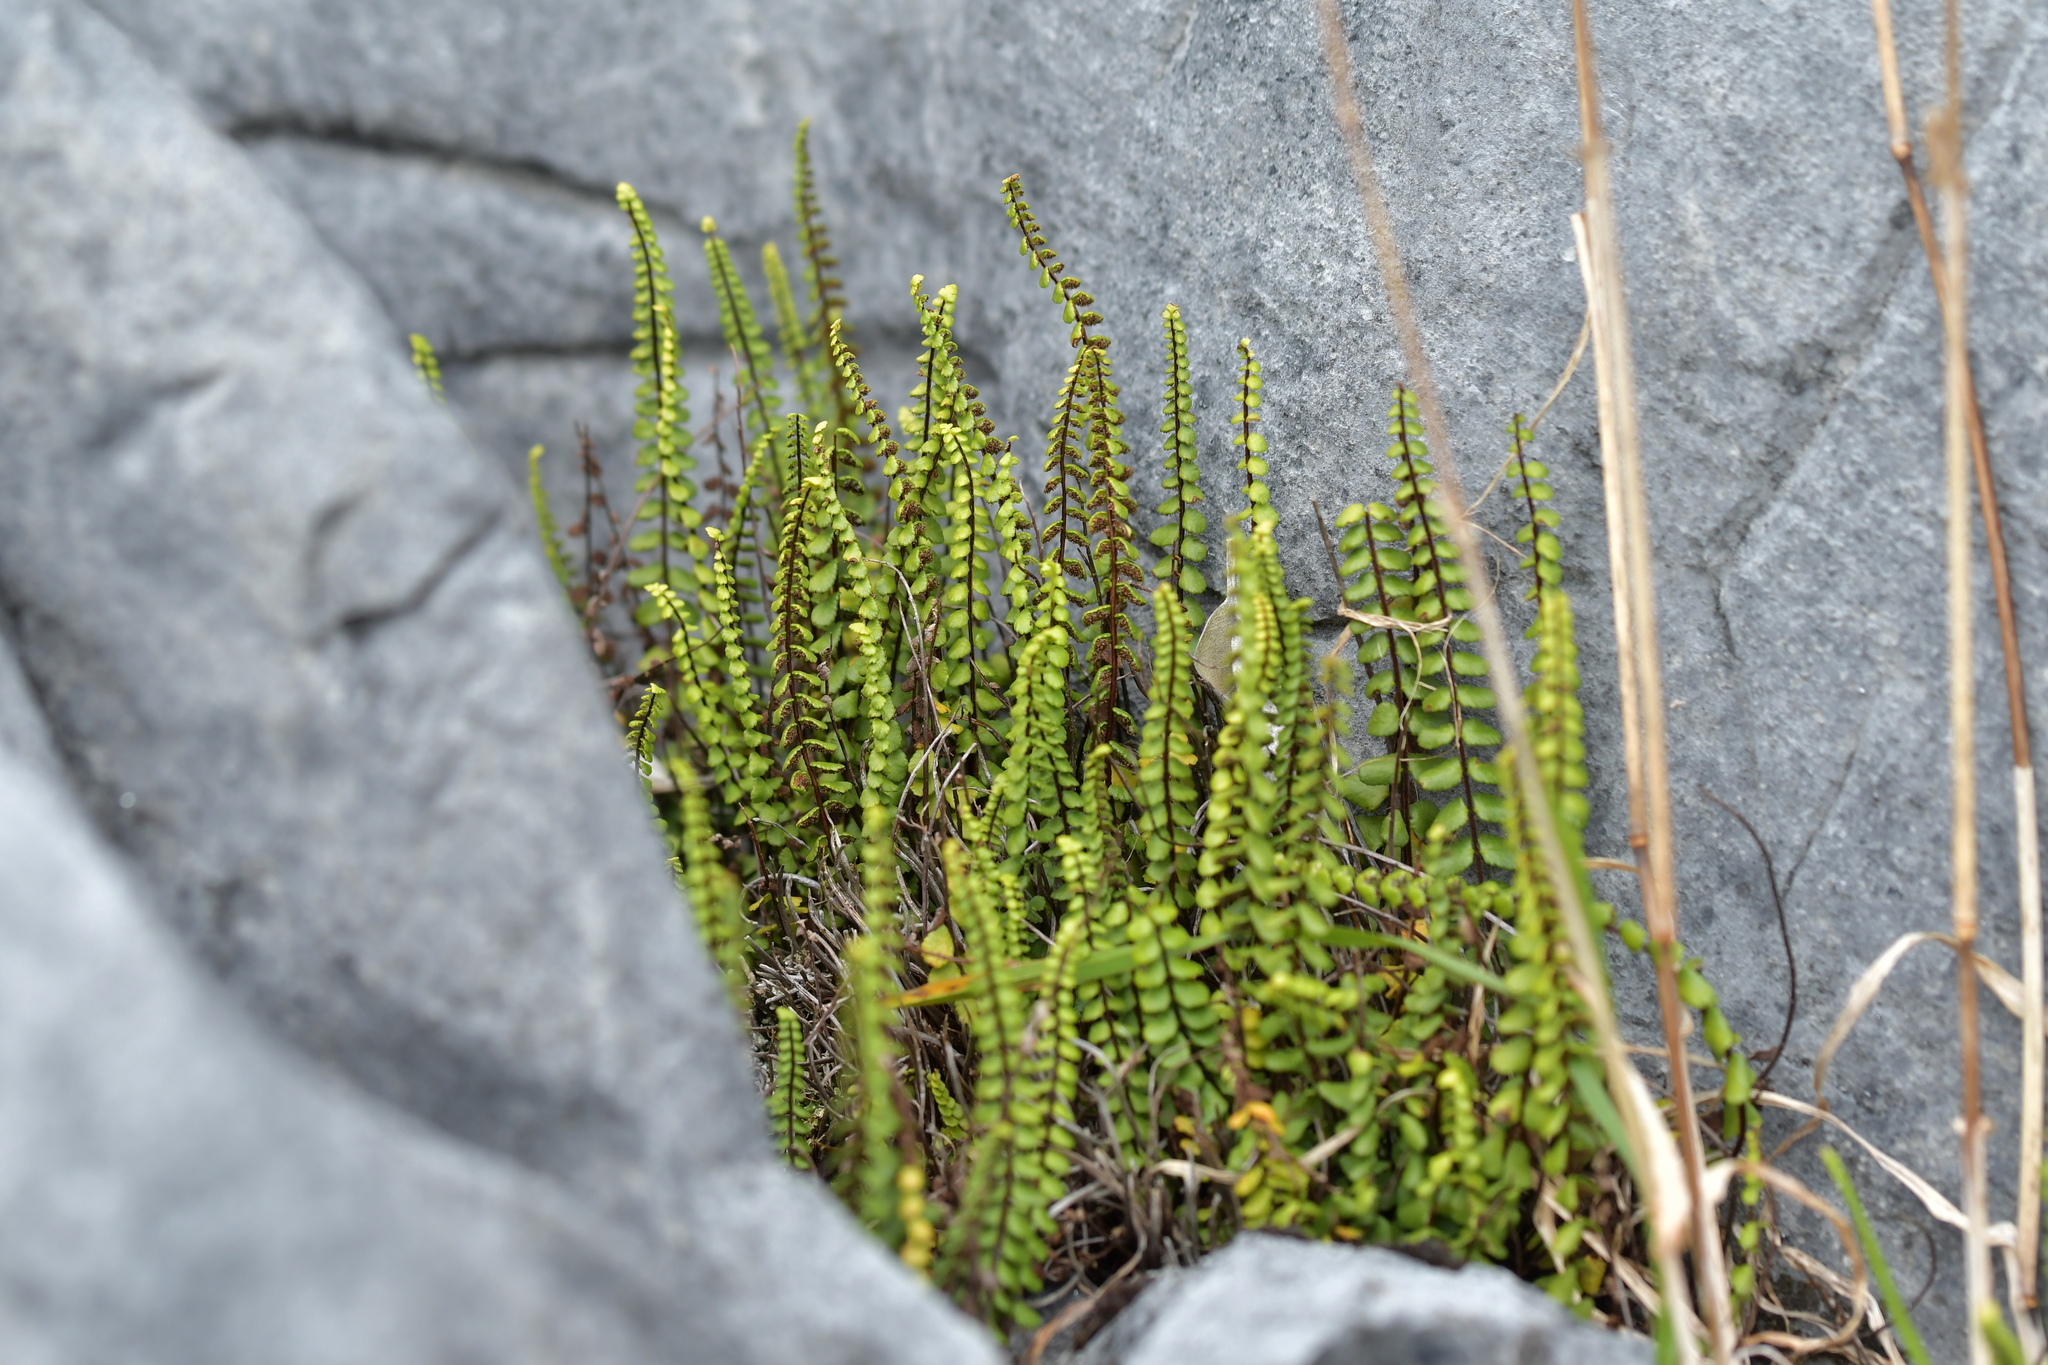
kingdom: Plantae
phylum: Tracheophyta
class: Polypodiopsida
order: Polypodiales
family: Aspleniaceae
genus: Asplenium
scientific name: Asplenium trichomanes
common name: Maidenhair spleenwort
